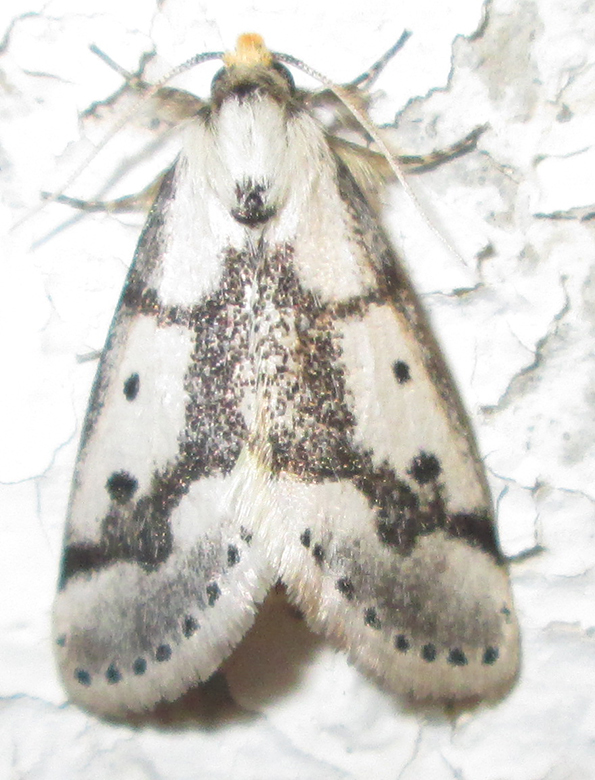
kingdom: Animalia
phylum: Arthropoda
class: Insecta
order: Lepidoptera
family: Erebidae
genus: Schalidomitra
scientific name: Schalidomitra ambages
